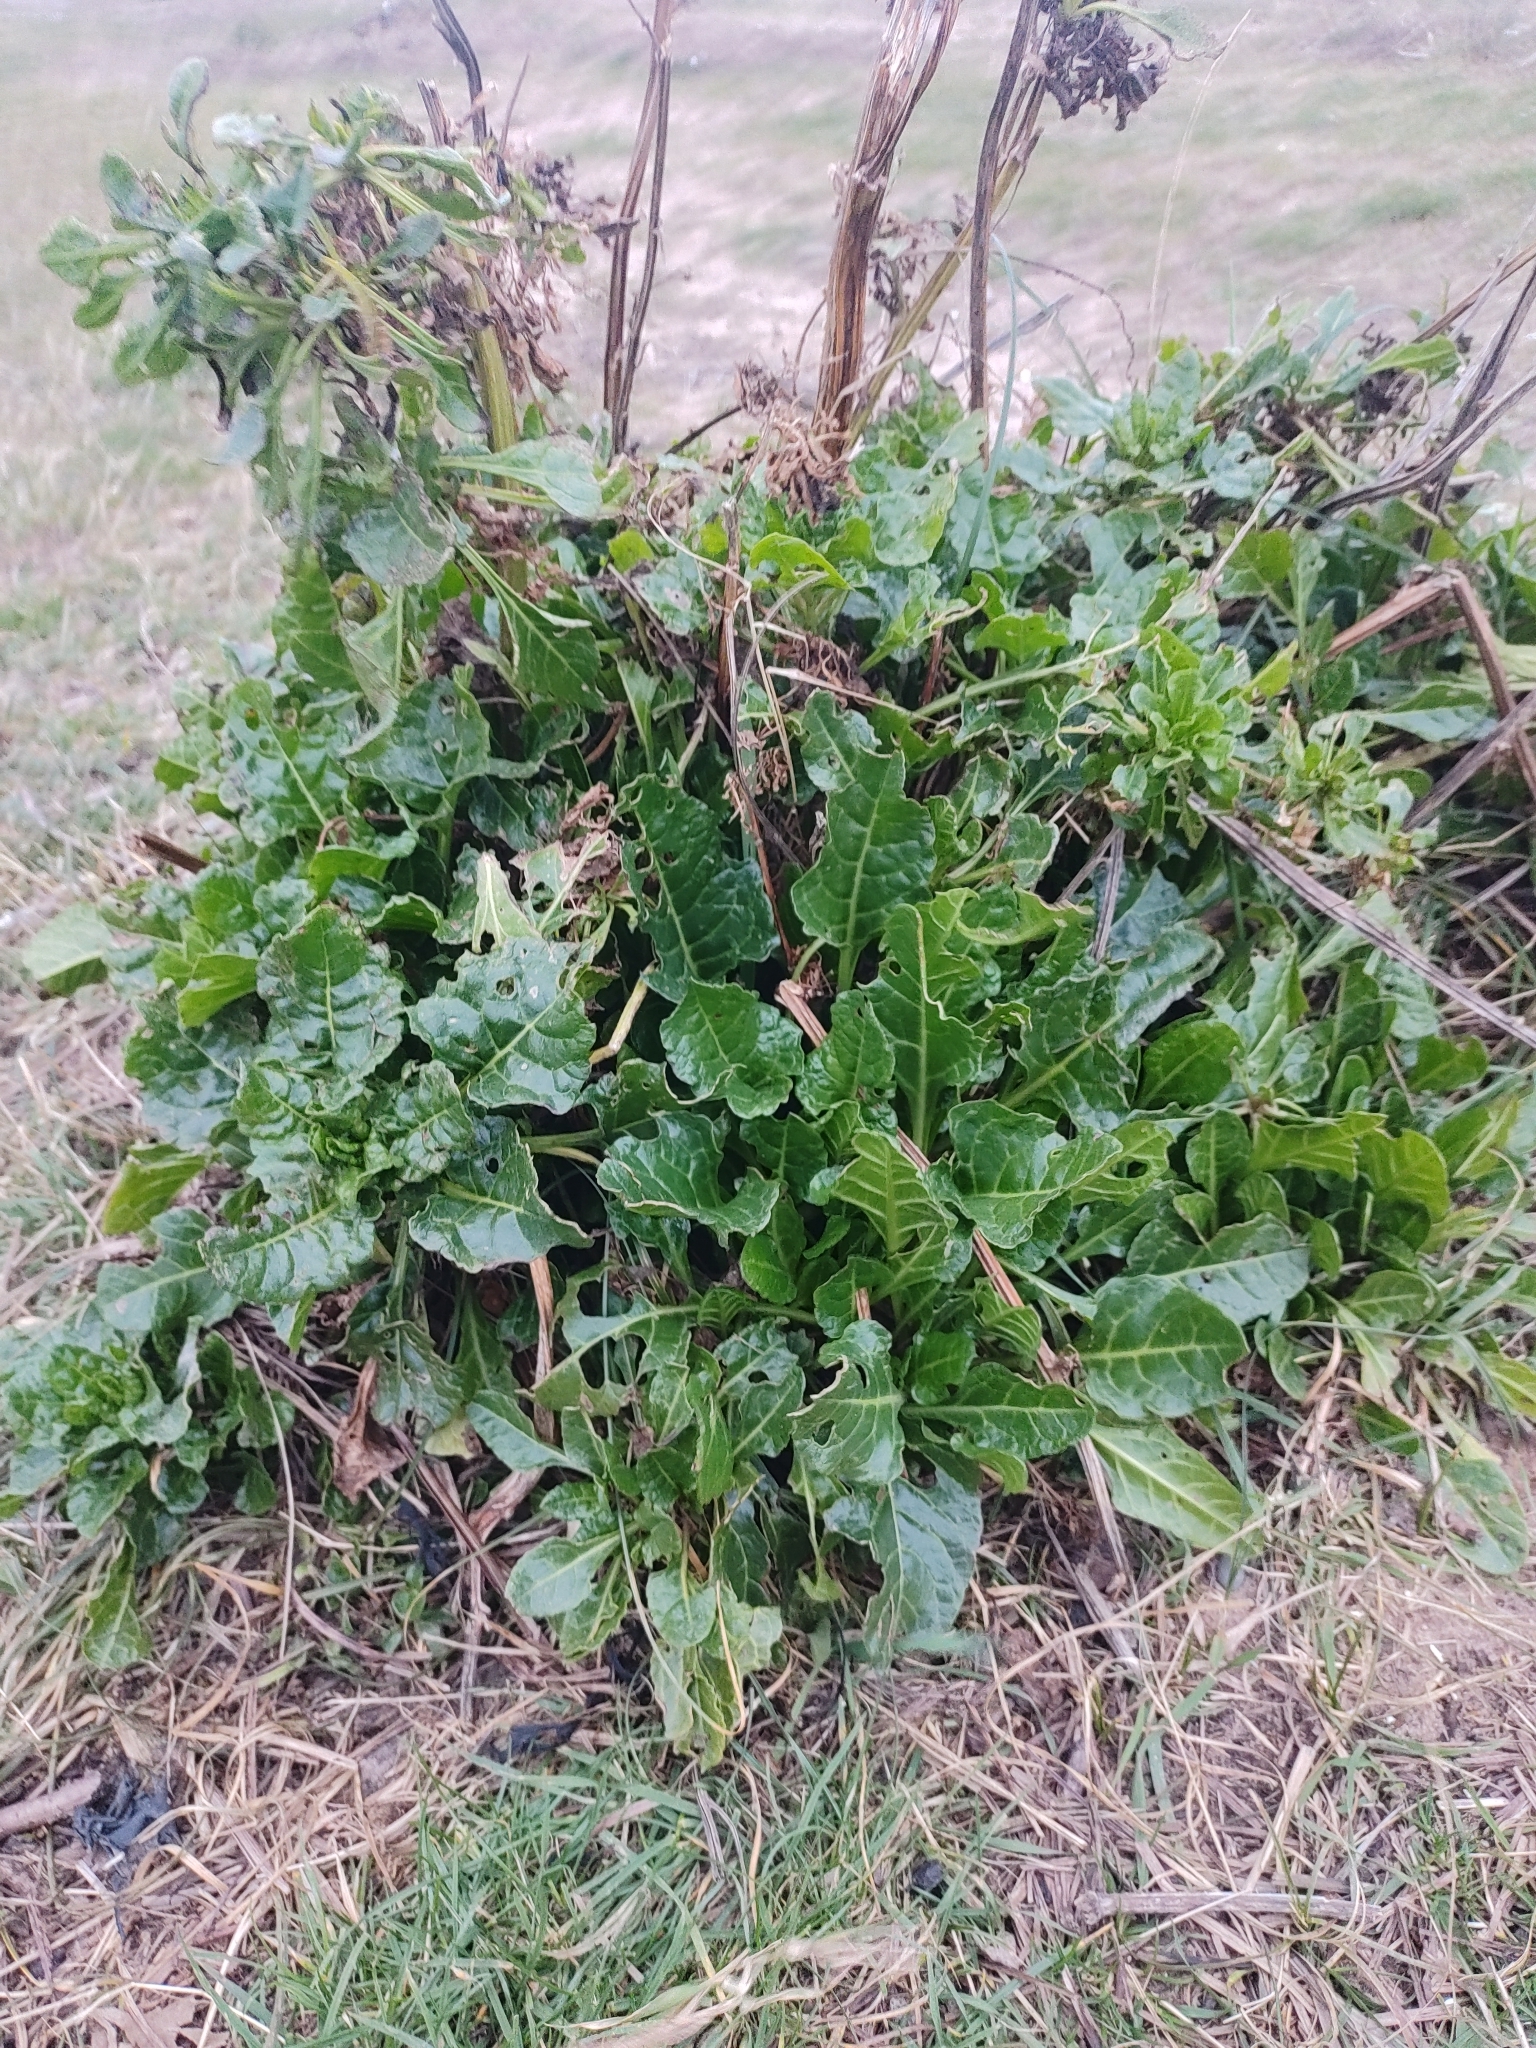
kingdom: Plantae
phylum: Tracheophyta
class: Magnoliopsida
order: Caryophyllales
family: Amaranthaceae
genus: Beta
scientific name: Beta vulgaris
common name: Beet
